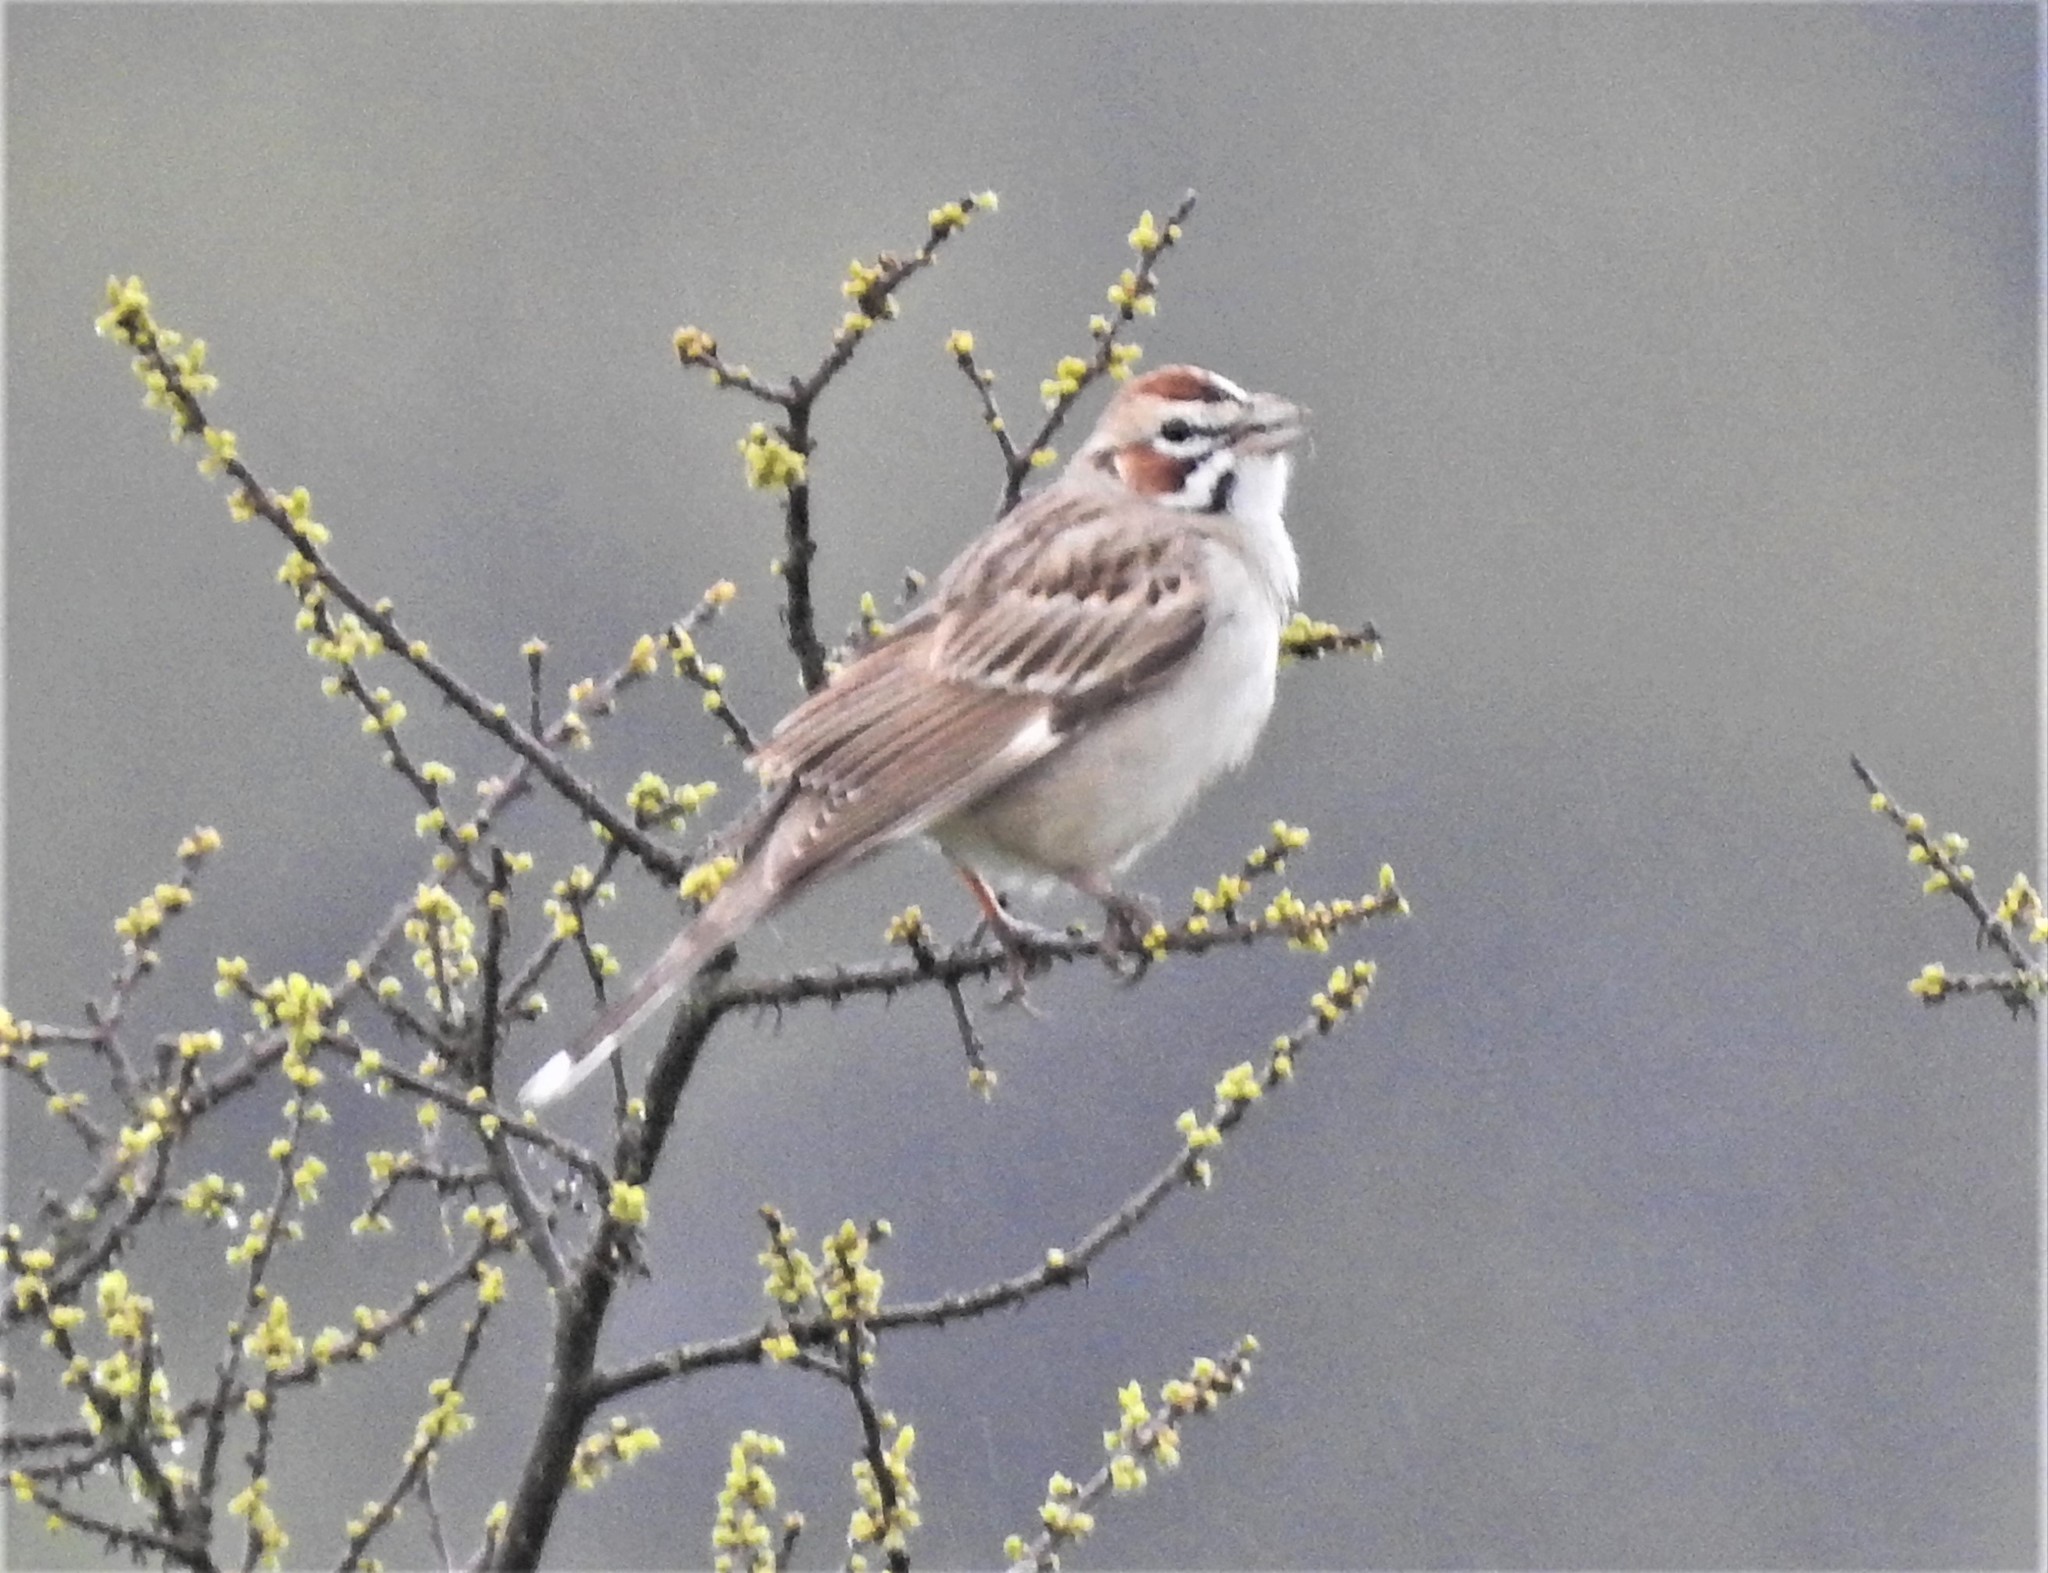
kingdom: Animalia
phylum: Chordata
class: Aves
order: Passeriformes
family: Passerellidae
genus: Chondestes
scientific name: Chondestes grammacus
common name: Lark sparrow
